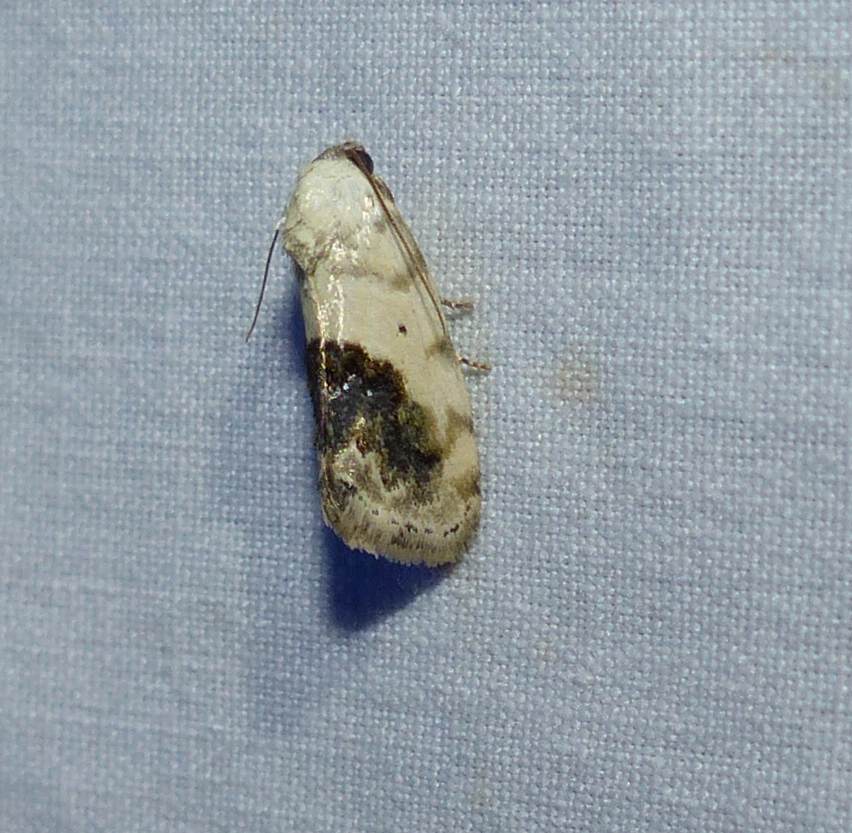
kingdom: Animalia
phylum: Arthropoda
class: Insecta
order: Lepidoptera
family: Noctuidae
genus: Acontia
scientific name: Acontia erastrioides
